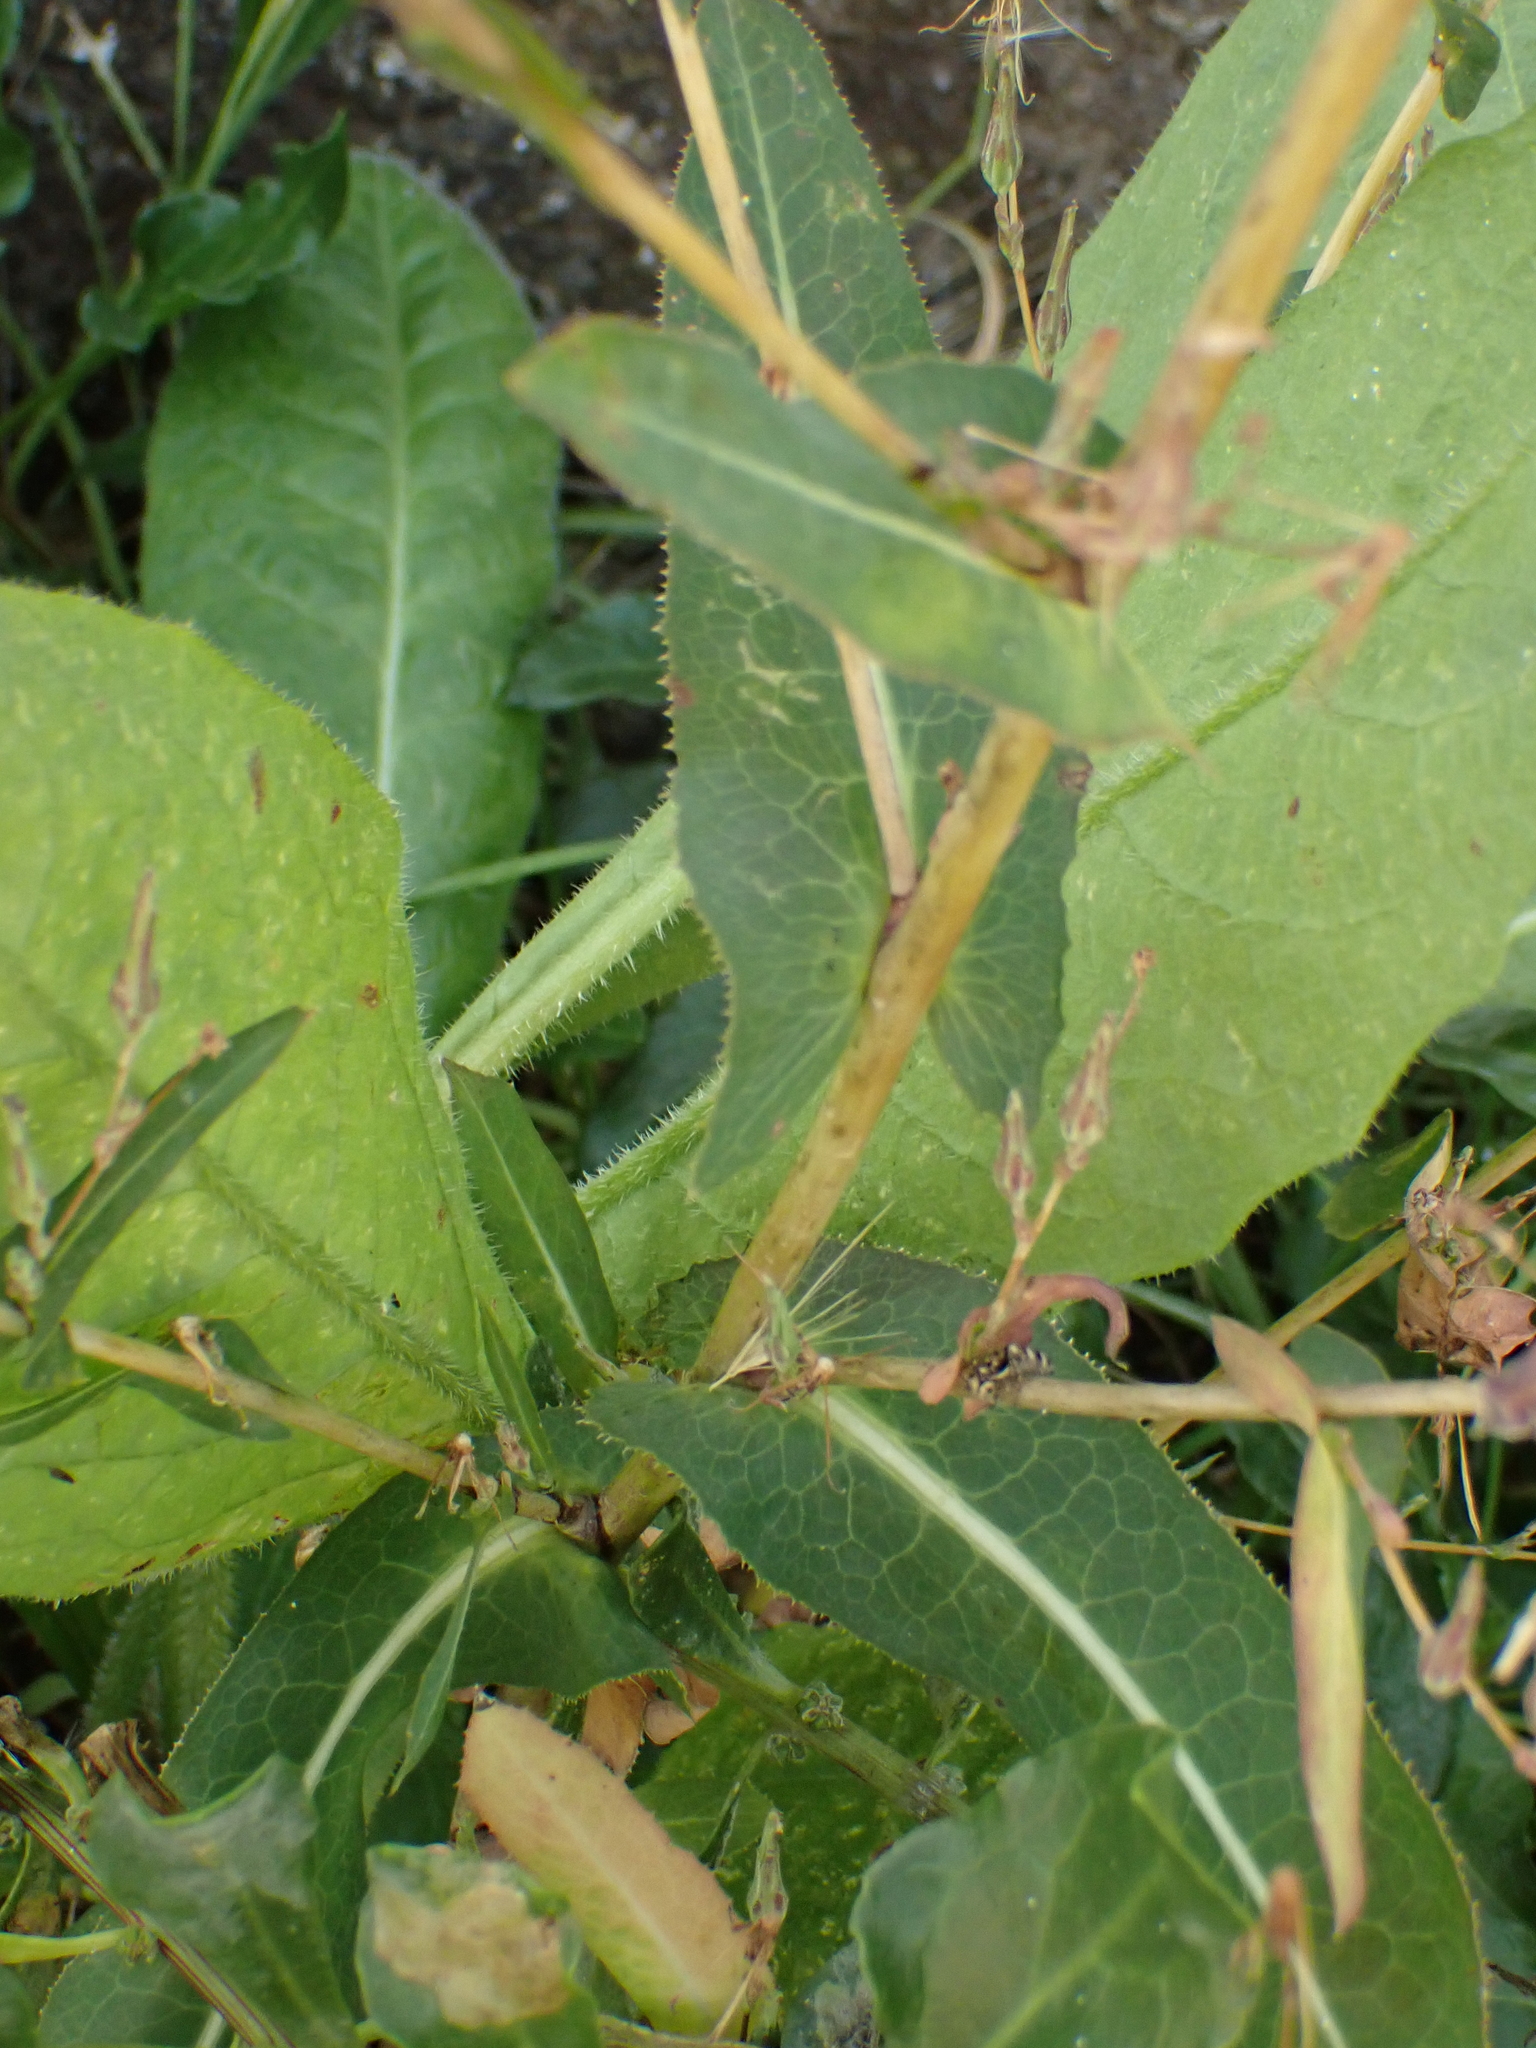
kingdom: Plantae
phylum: Tracheophyta
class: Magnoliopsida
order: Asterales
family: Asteraceae
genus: Lactuca
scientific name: Lactuca serriola
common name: Prickly lettuce
